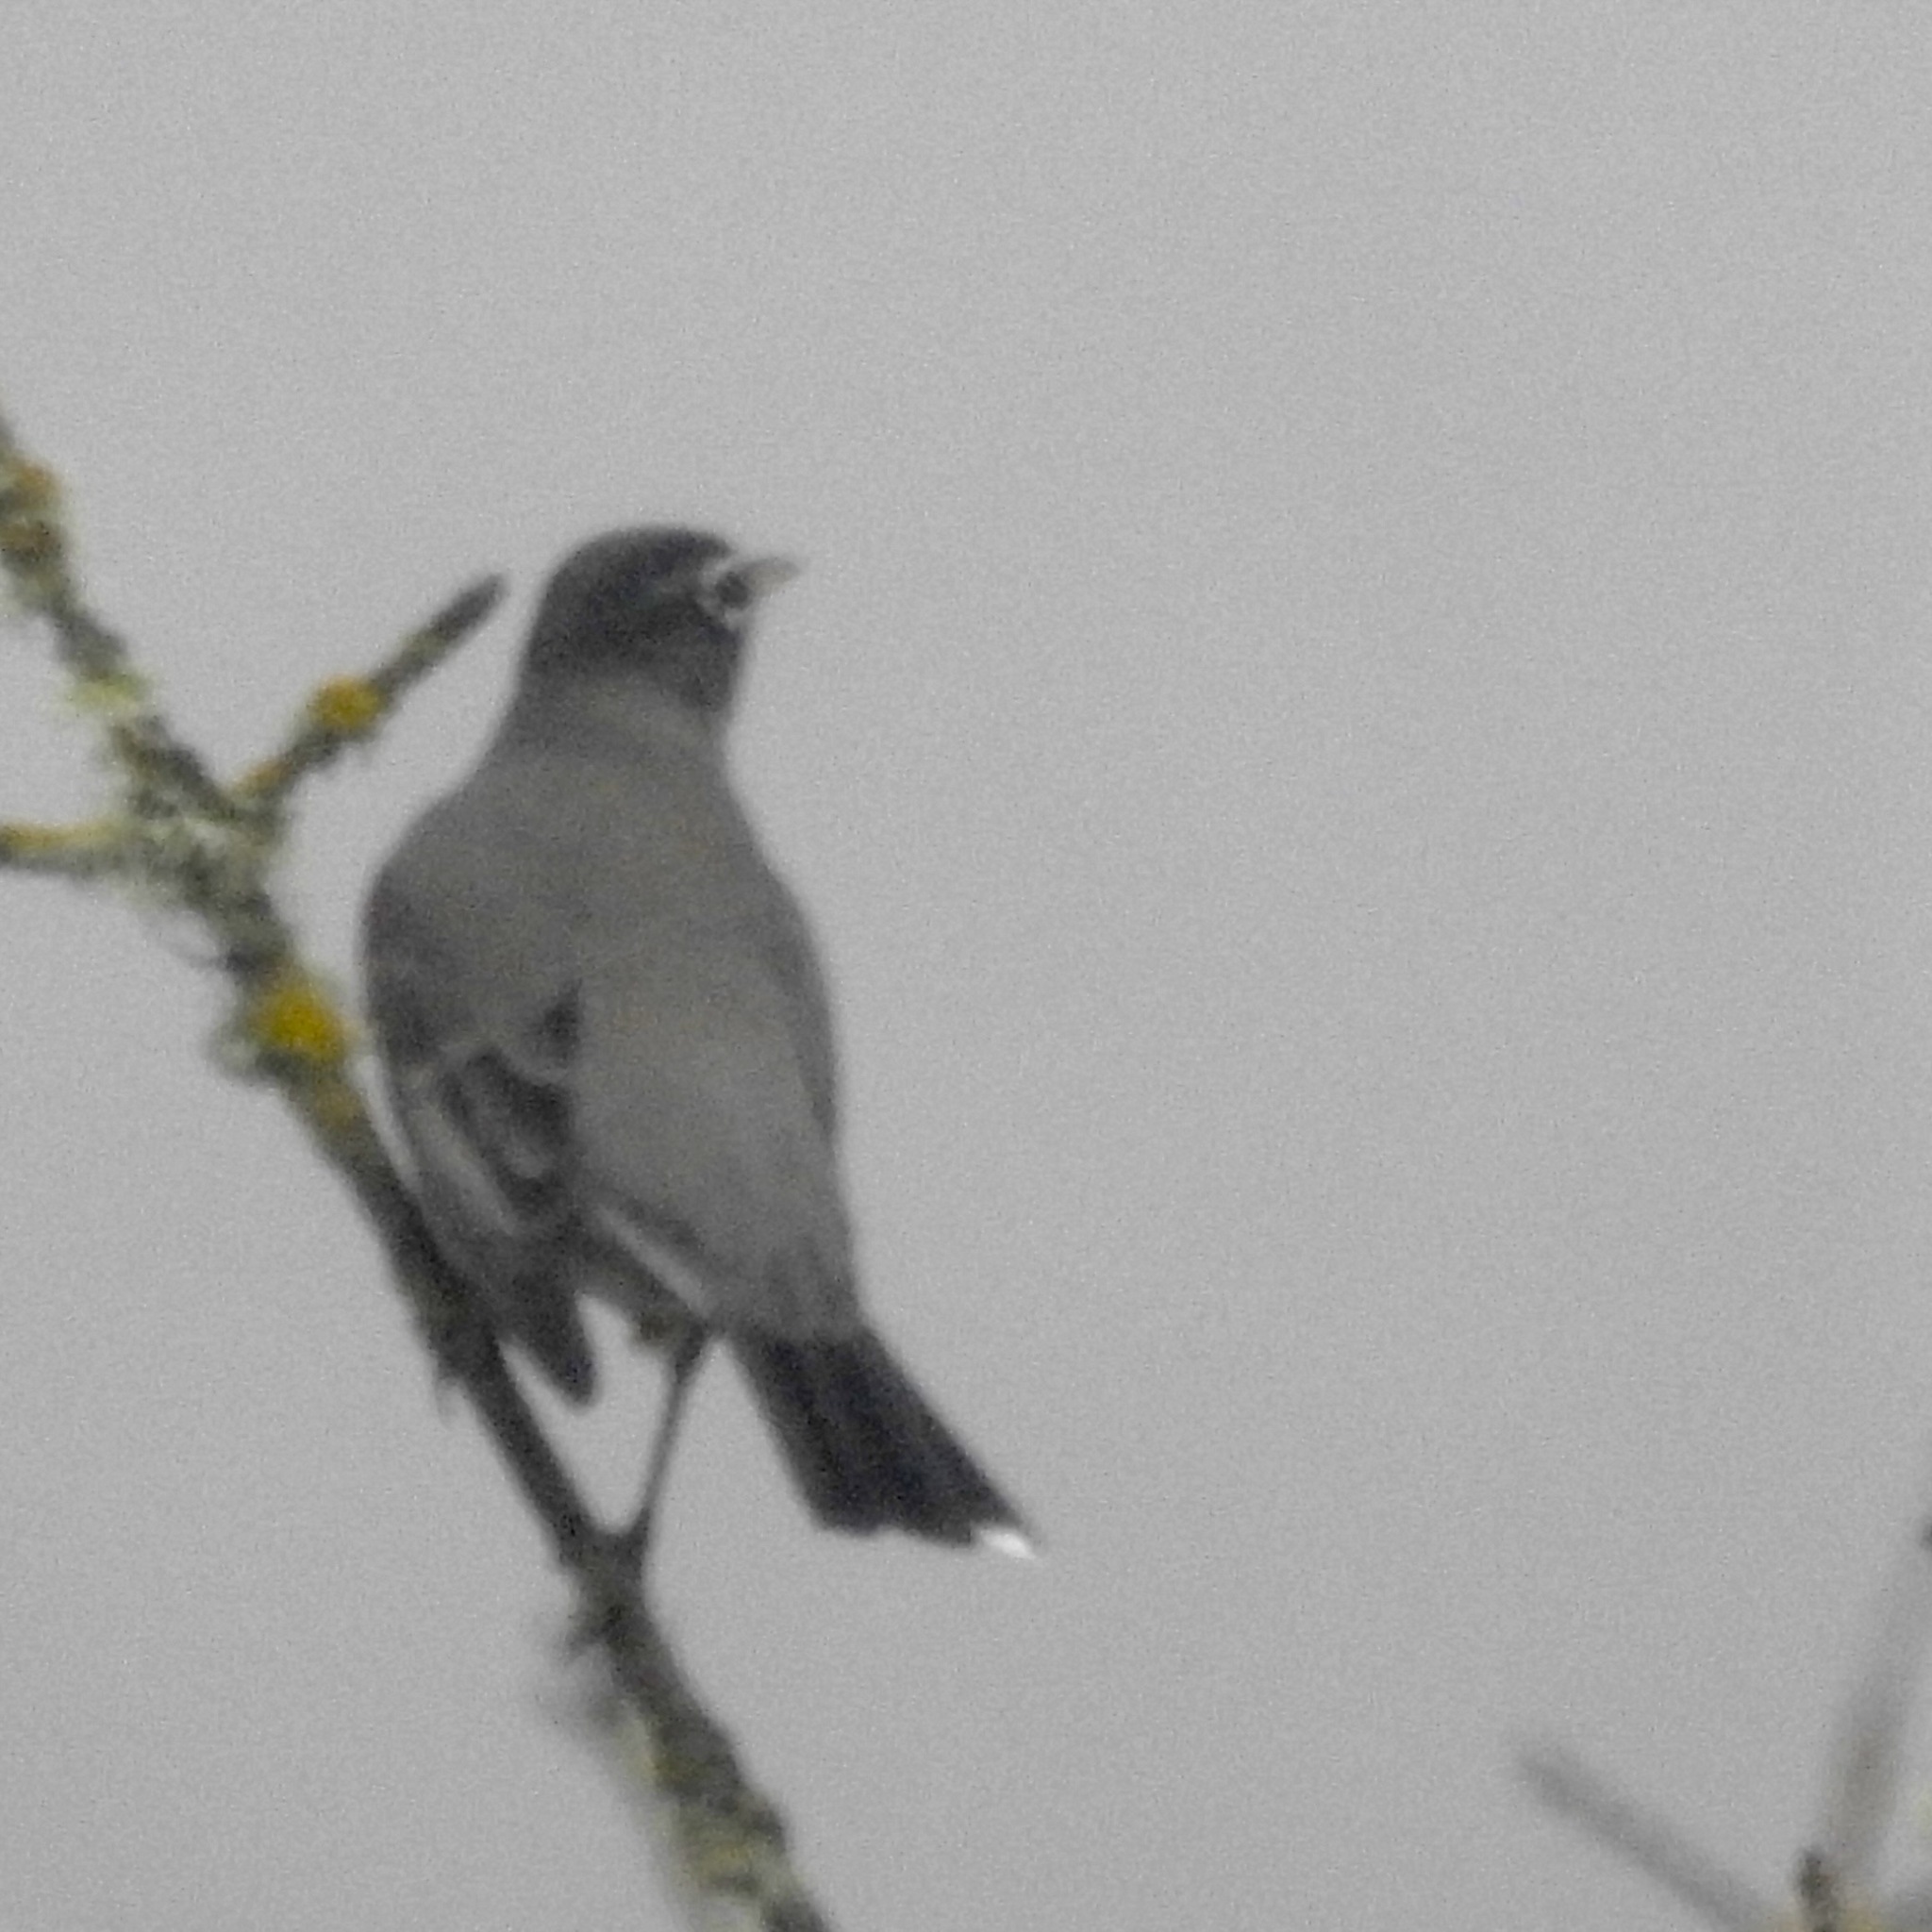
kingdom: Animalia
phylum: Chordata
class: Aves
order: Passeriformes
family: Turdidae
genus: Turdus
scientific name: Turdus migratorius
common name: American robin
